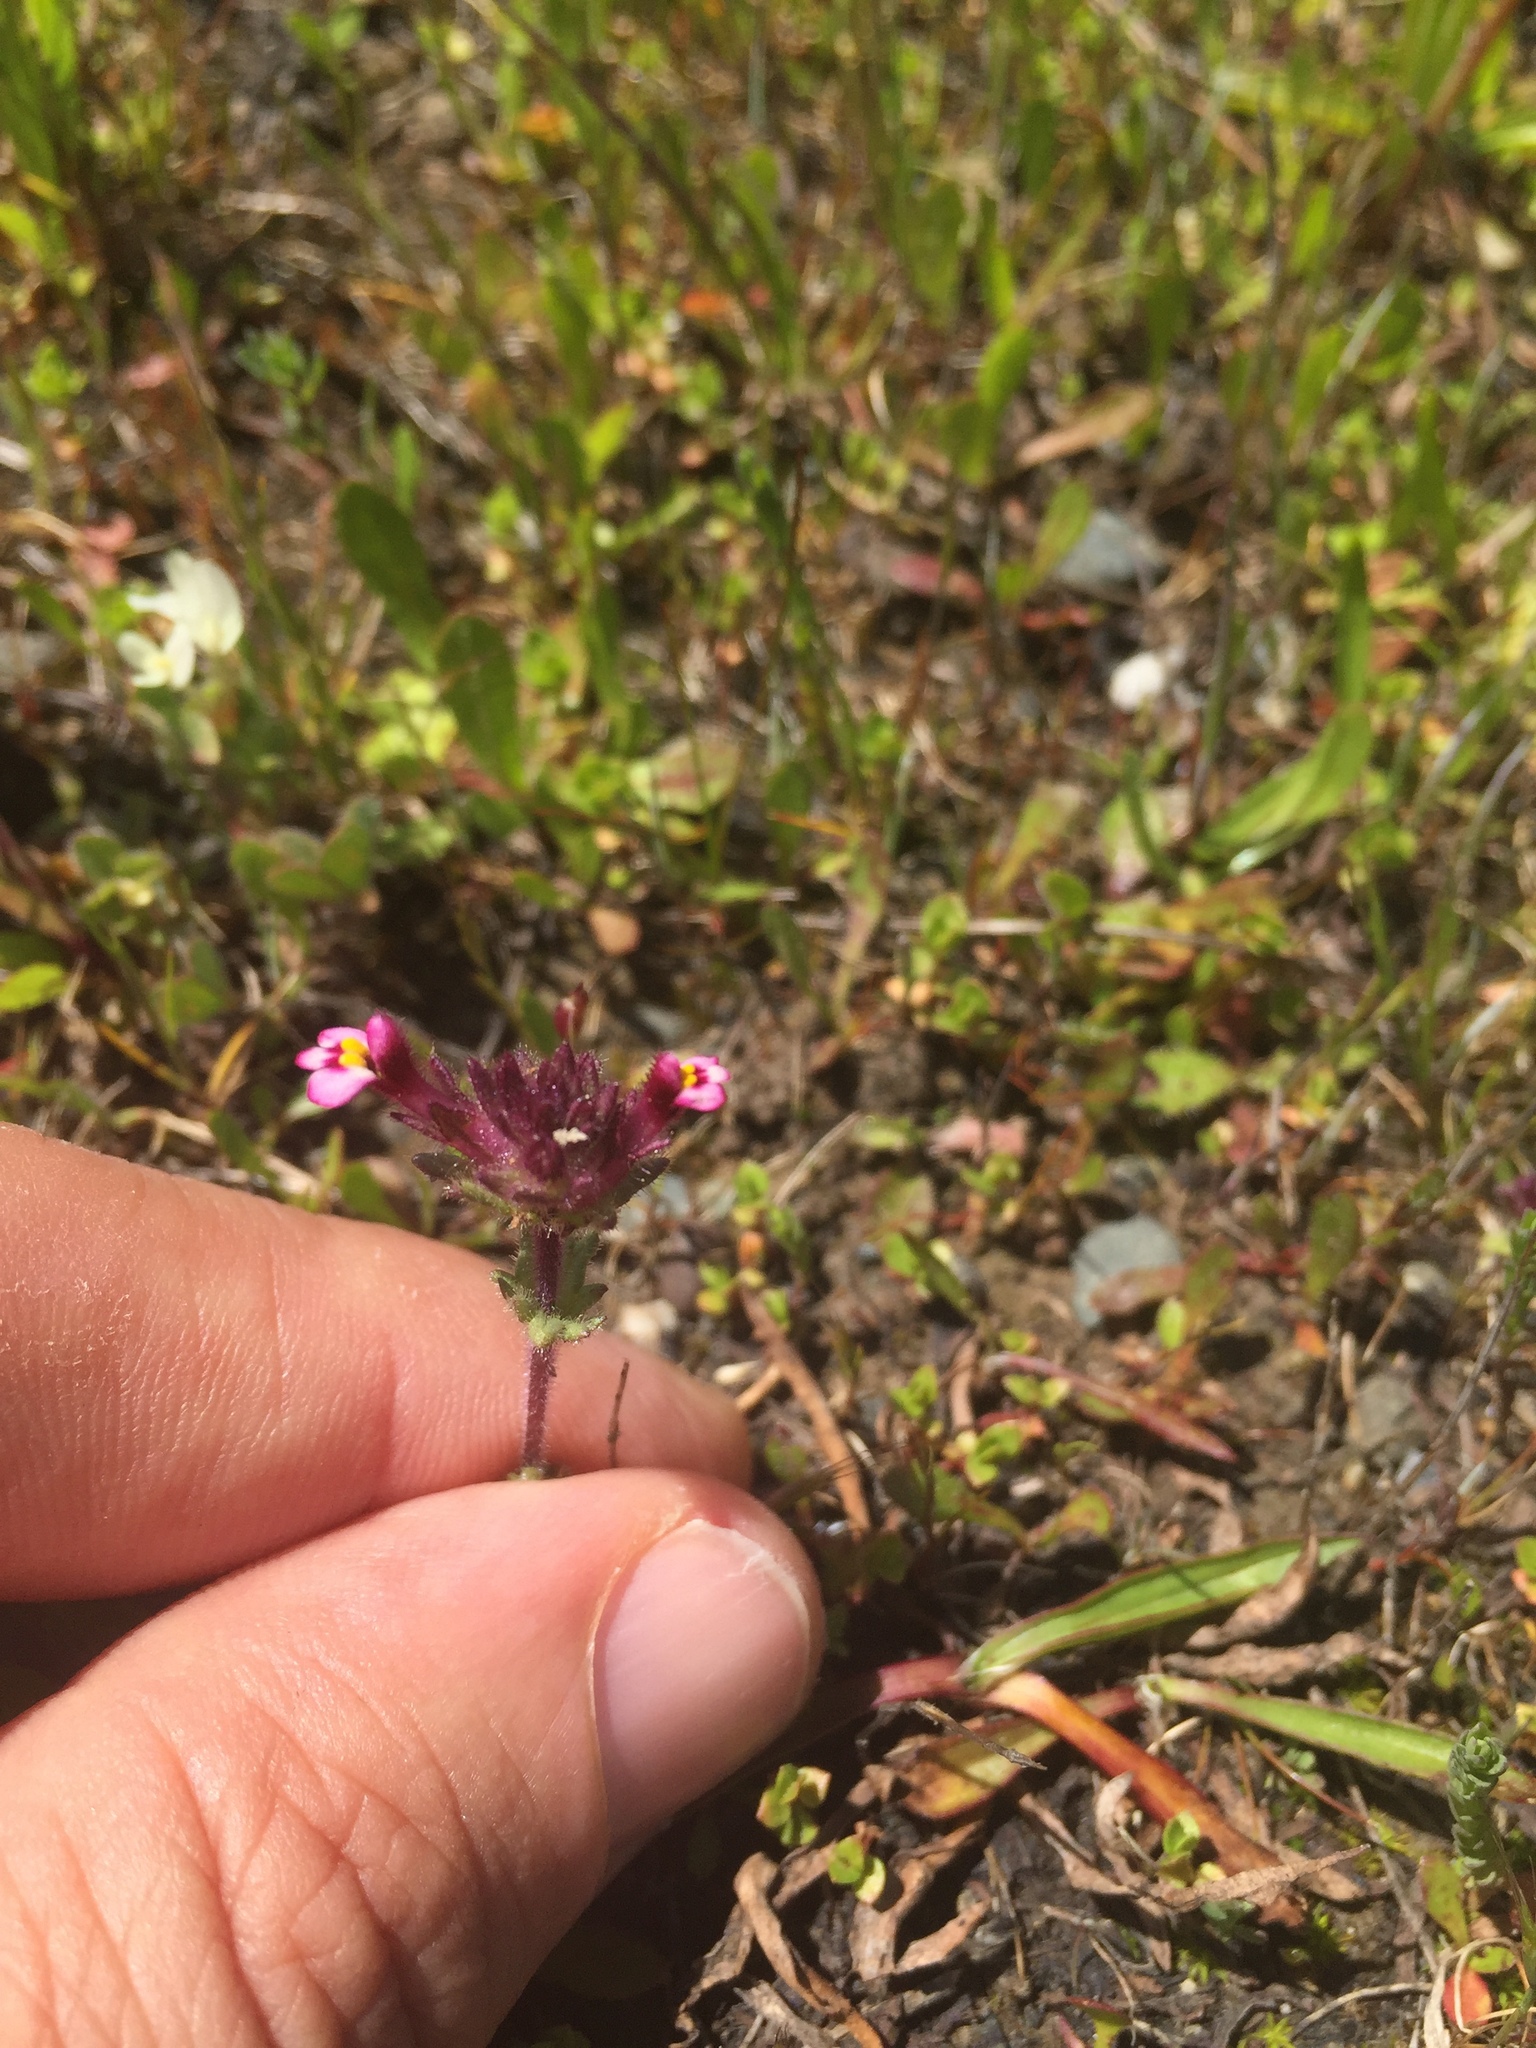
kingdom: Plantae
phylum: Tracheophyta
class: Magnoliopsida
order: Lamiales
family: Orobanchaceae
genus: Parentucellia
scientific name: Parentucellia latifolia
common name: Broadleaf glandweed
